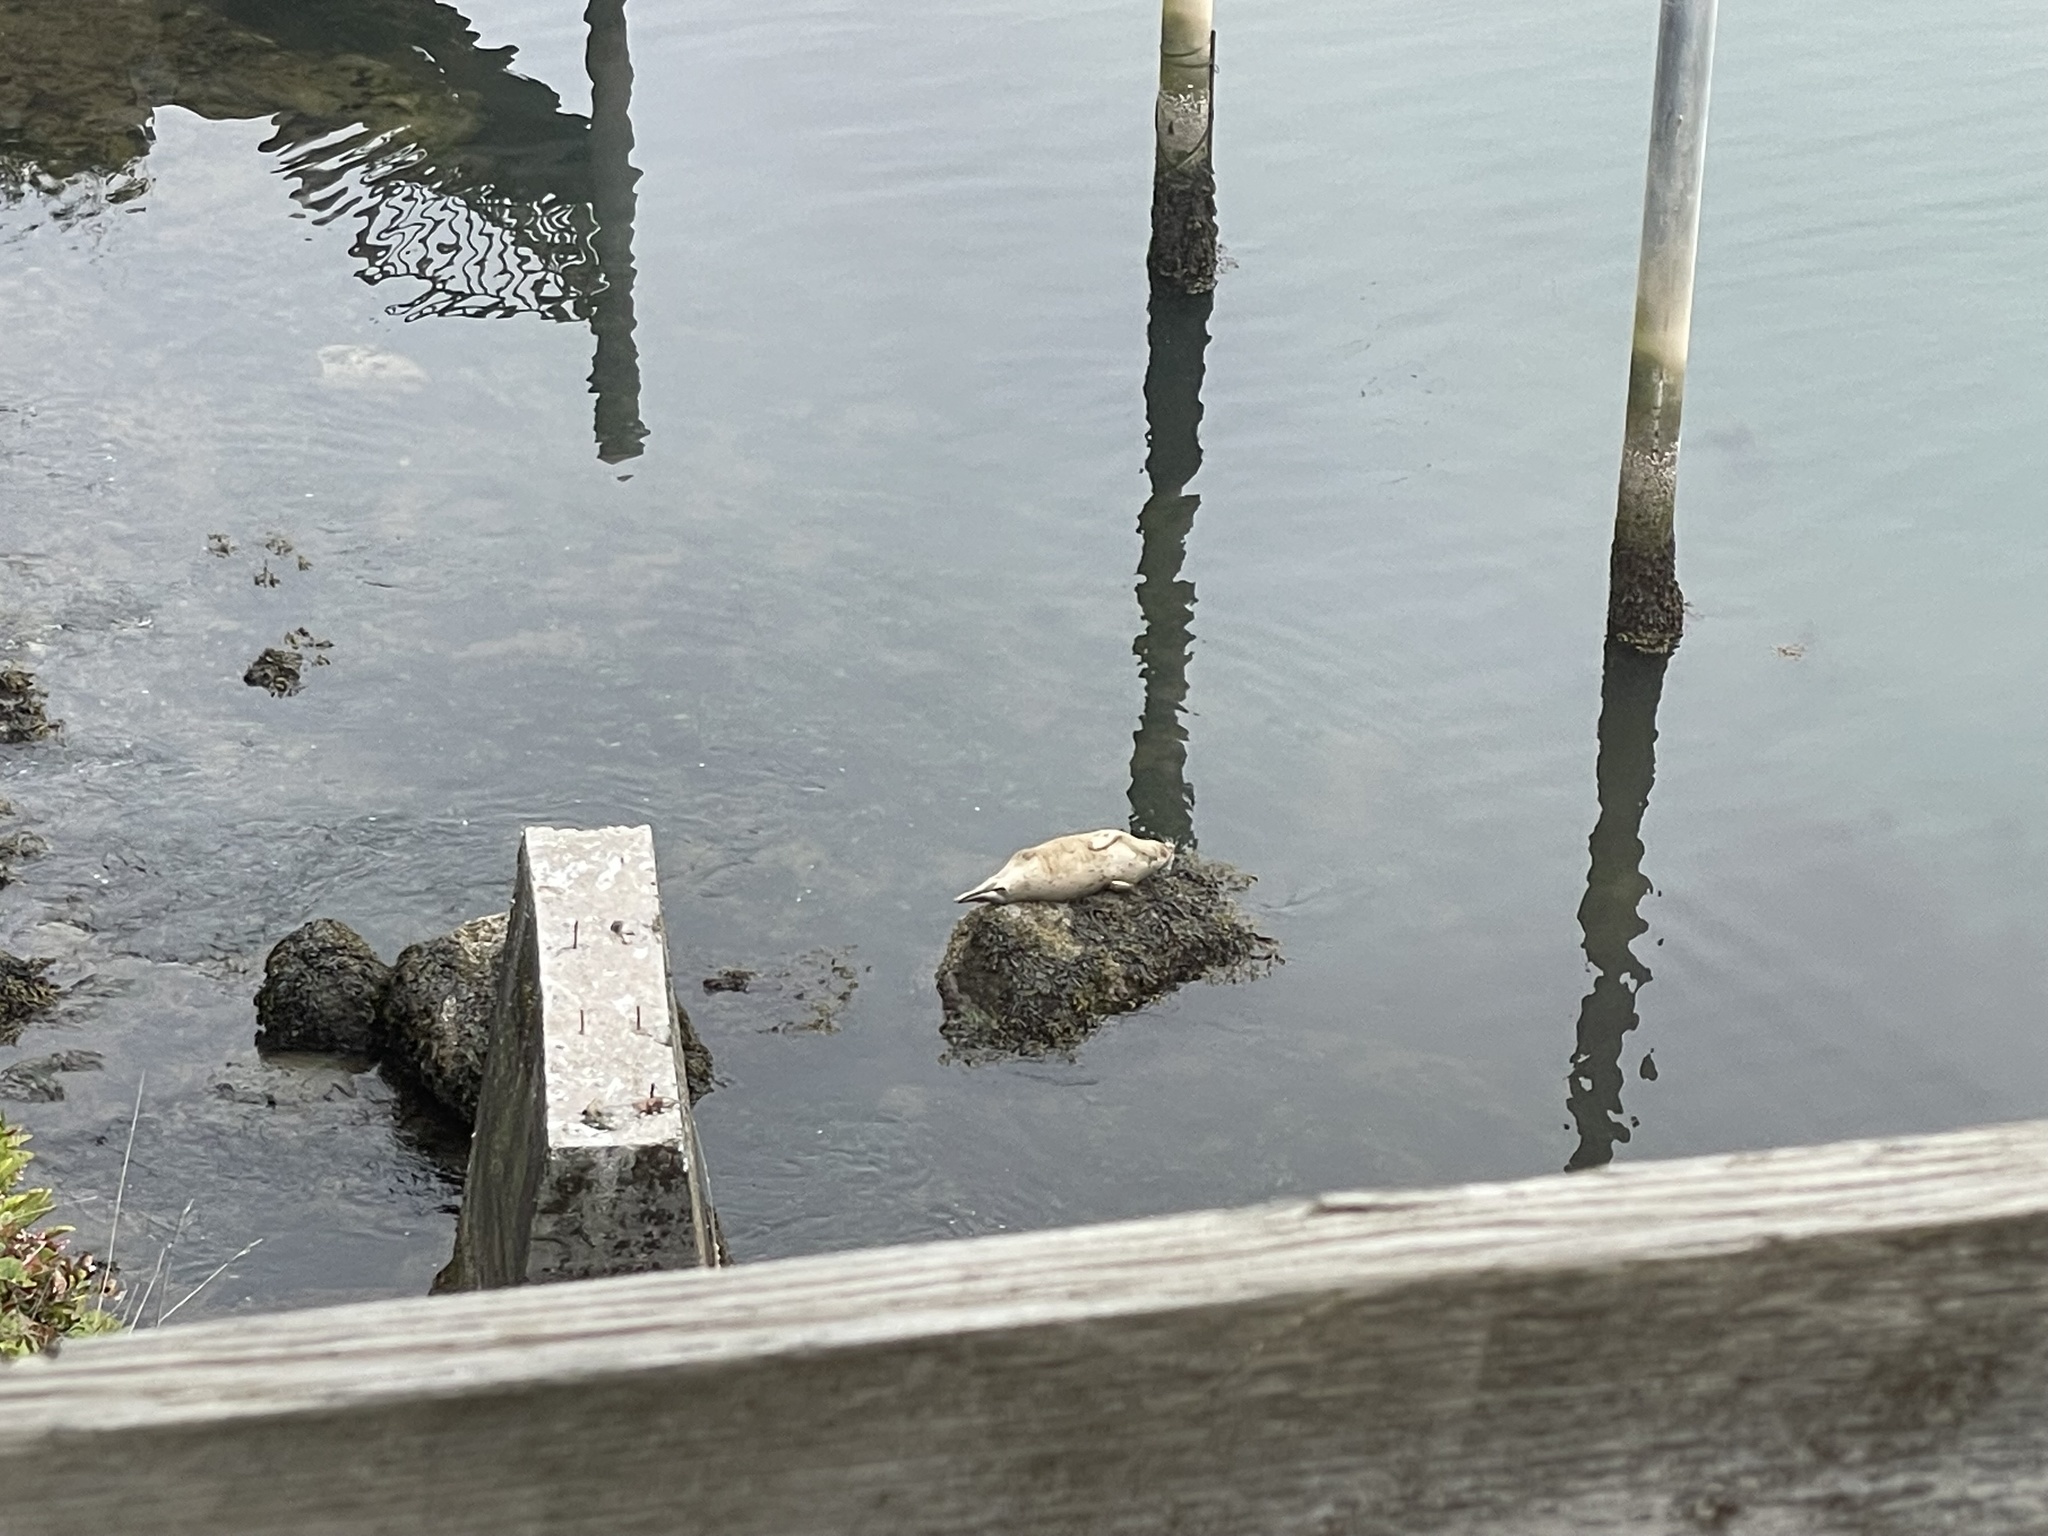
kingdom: Animalia
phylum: Chordata
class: Mammalia
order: Carnivora
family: Phocidae
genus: Phoca
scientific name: Phoca vitulina
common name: Harbor seal
